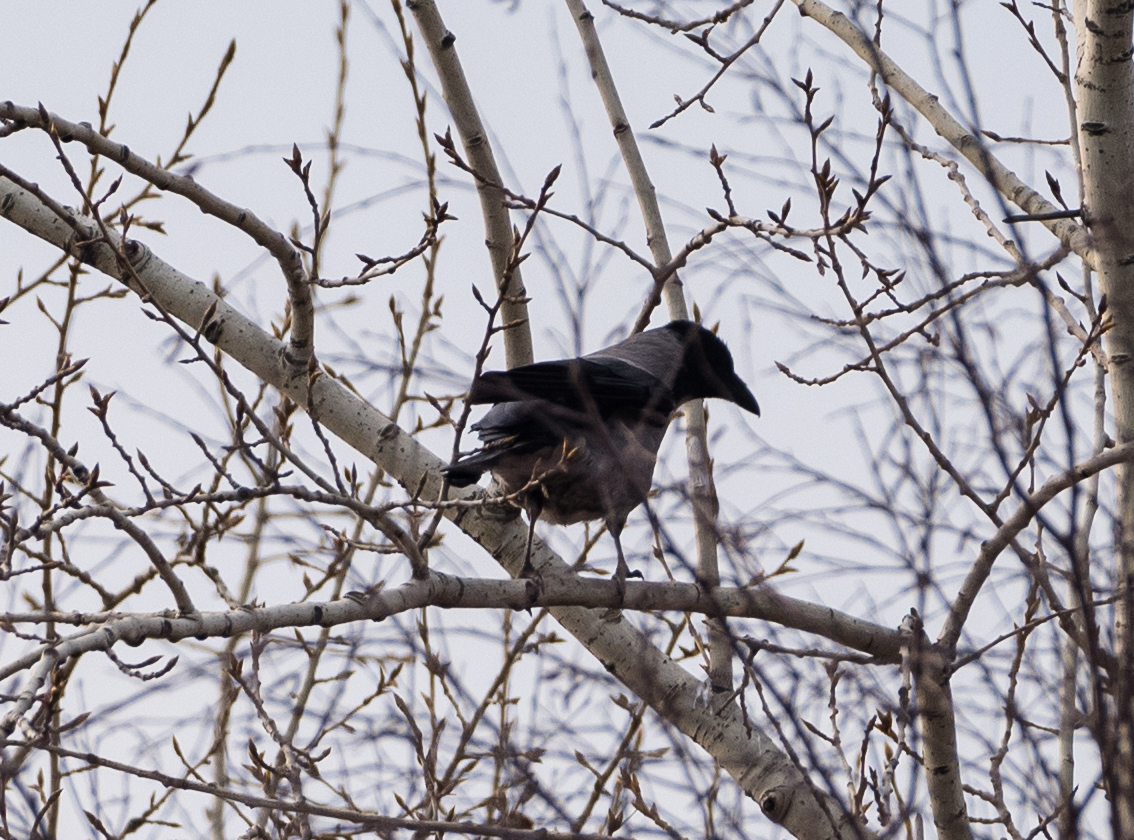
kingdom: Animalia
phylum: Chordata
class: Aves
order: Passeriformes
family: Corvidae
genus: Corvus
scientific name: Corvus cornix
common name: Hooded crow
